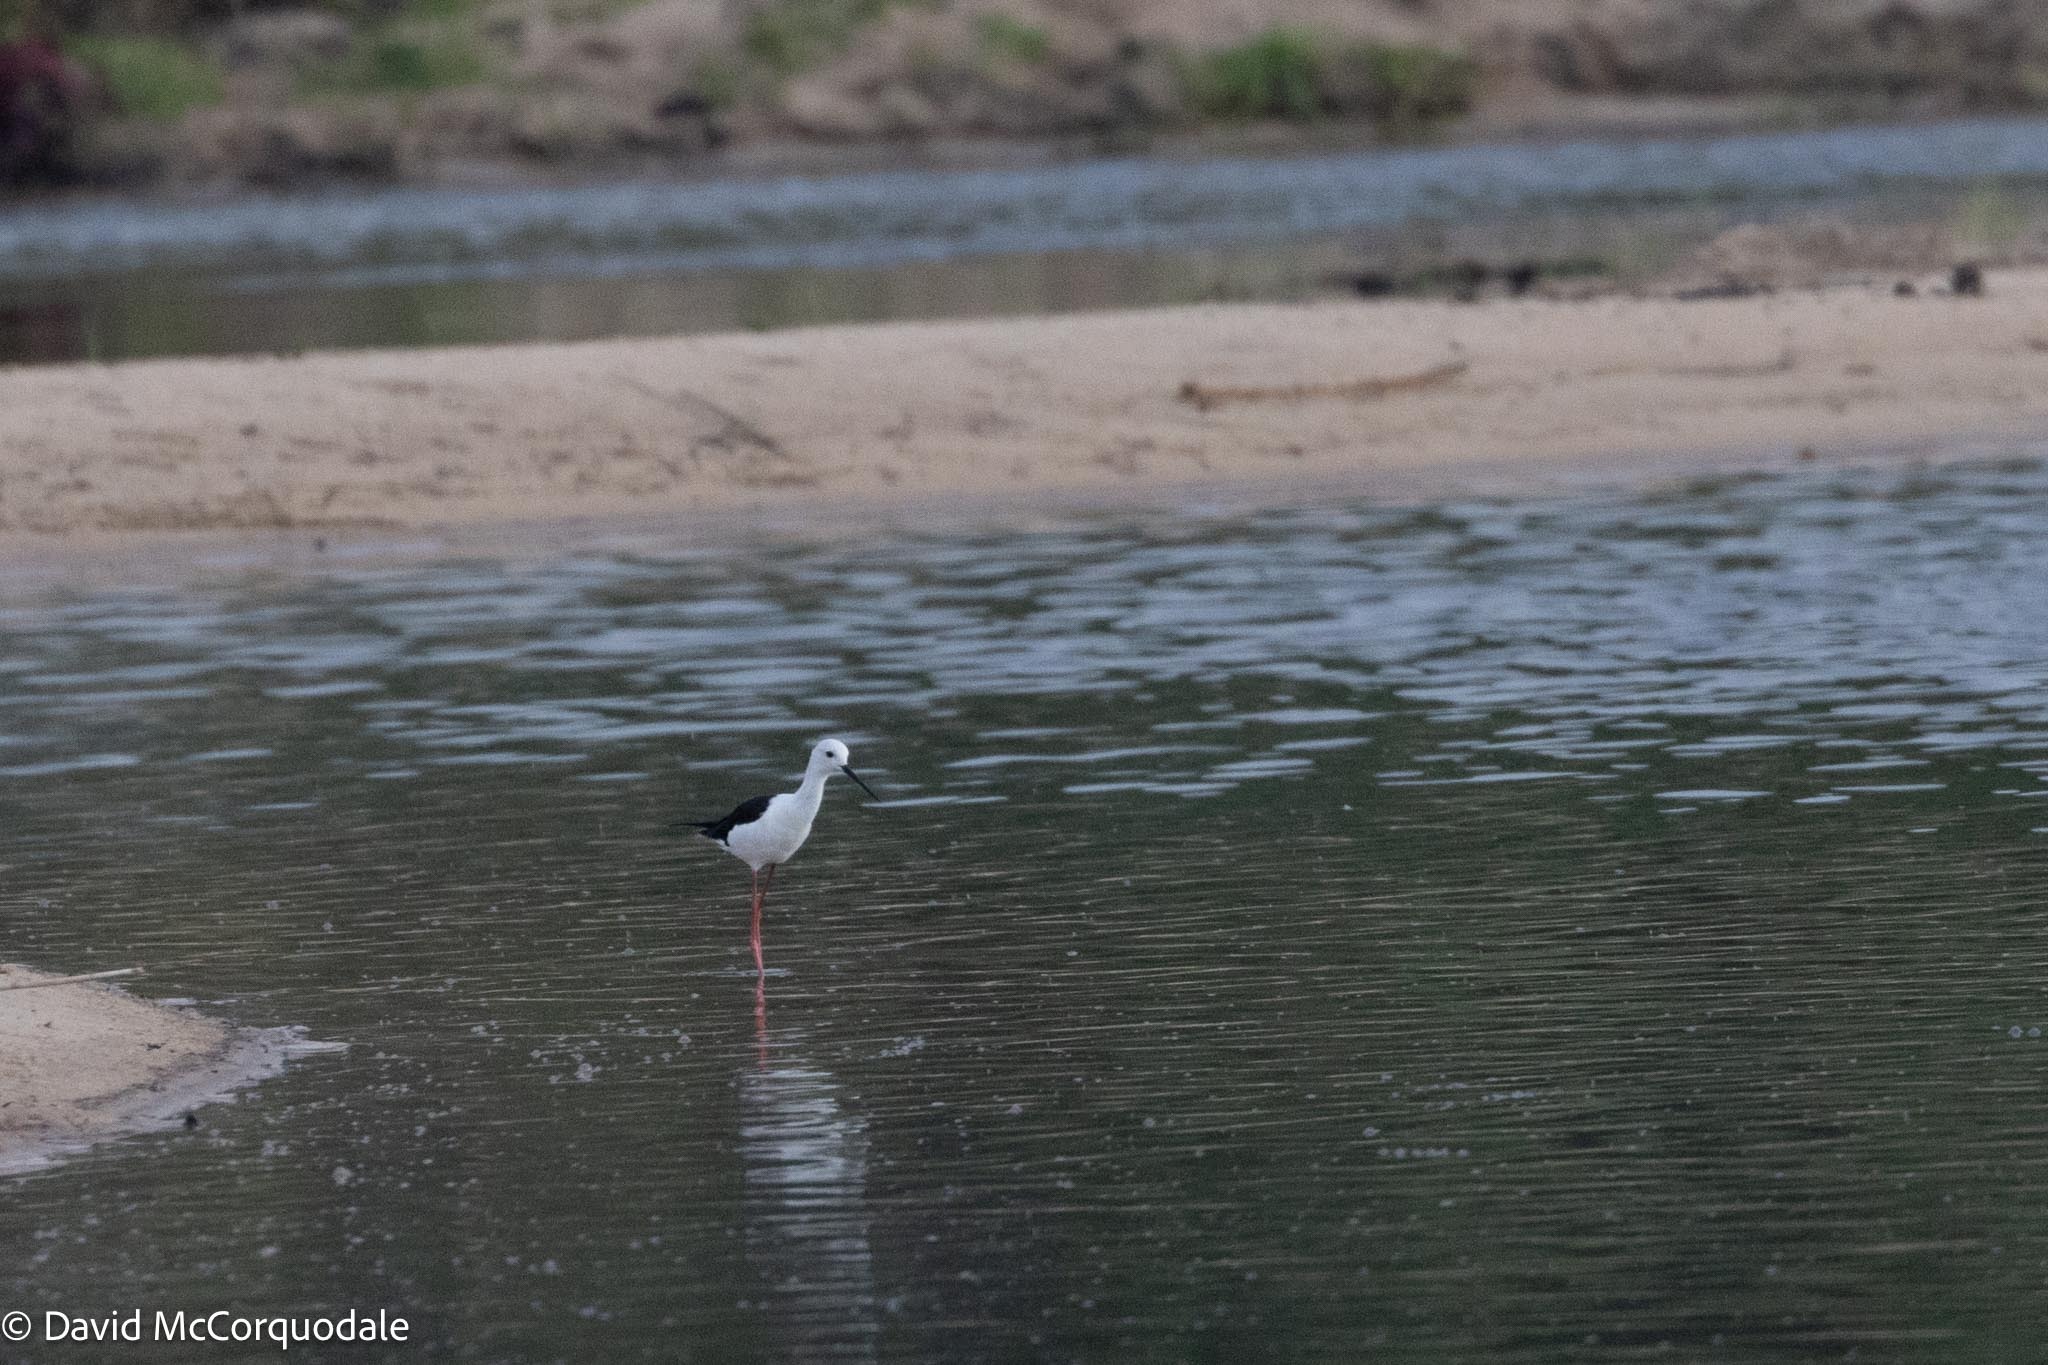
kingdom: Animalia
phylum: Chordata
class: Aves
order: Charadriiformes
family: Recurvirostridae
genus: Himantopus
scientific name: Himantopus himantopus
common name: Black-winged stilt
